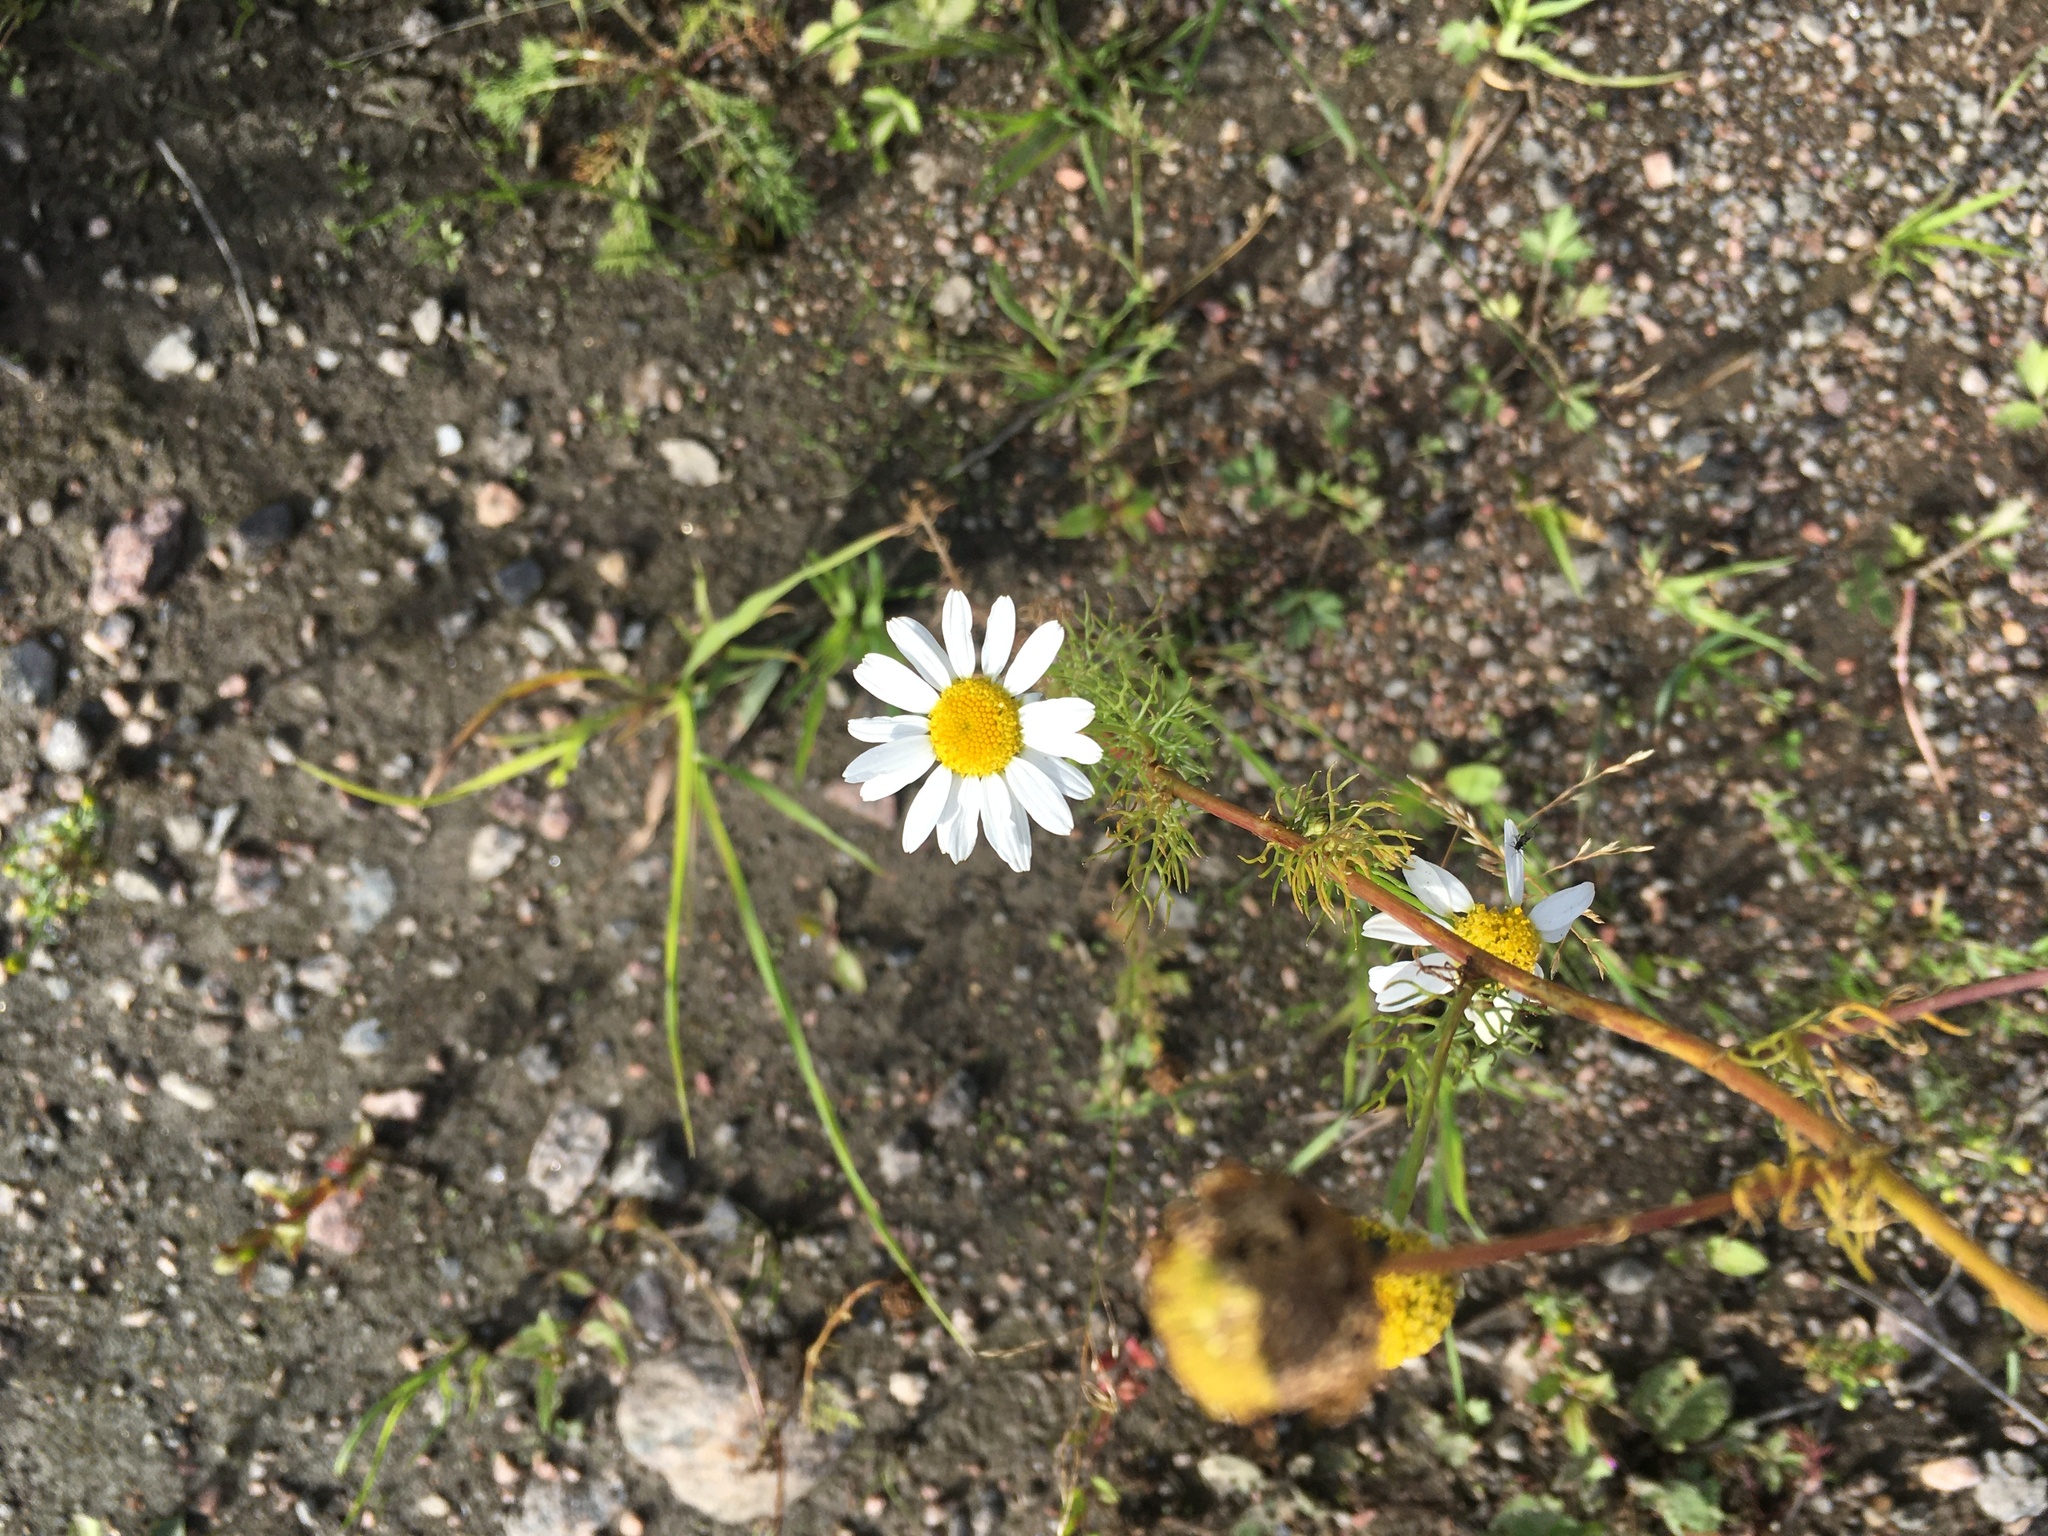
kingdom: Plantae
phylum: Tracheophyta
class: Magnoliopsida
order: Asterales
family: Asteraceae
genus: Tripleurospermum
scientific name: Tripleurospermum inodorum
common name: Scentless mayweed
